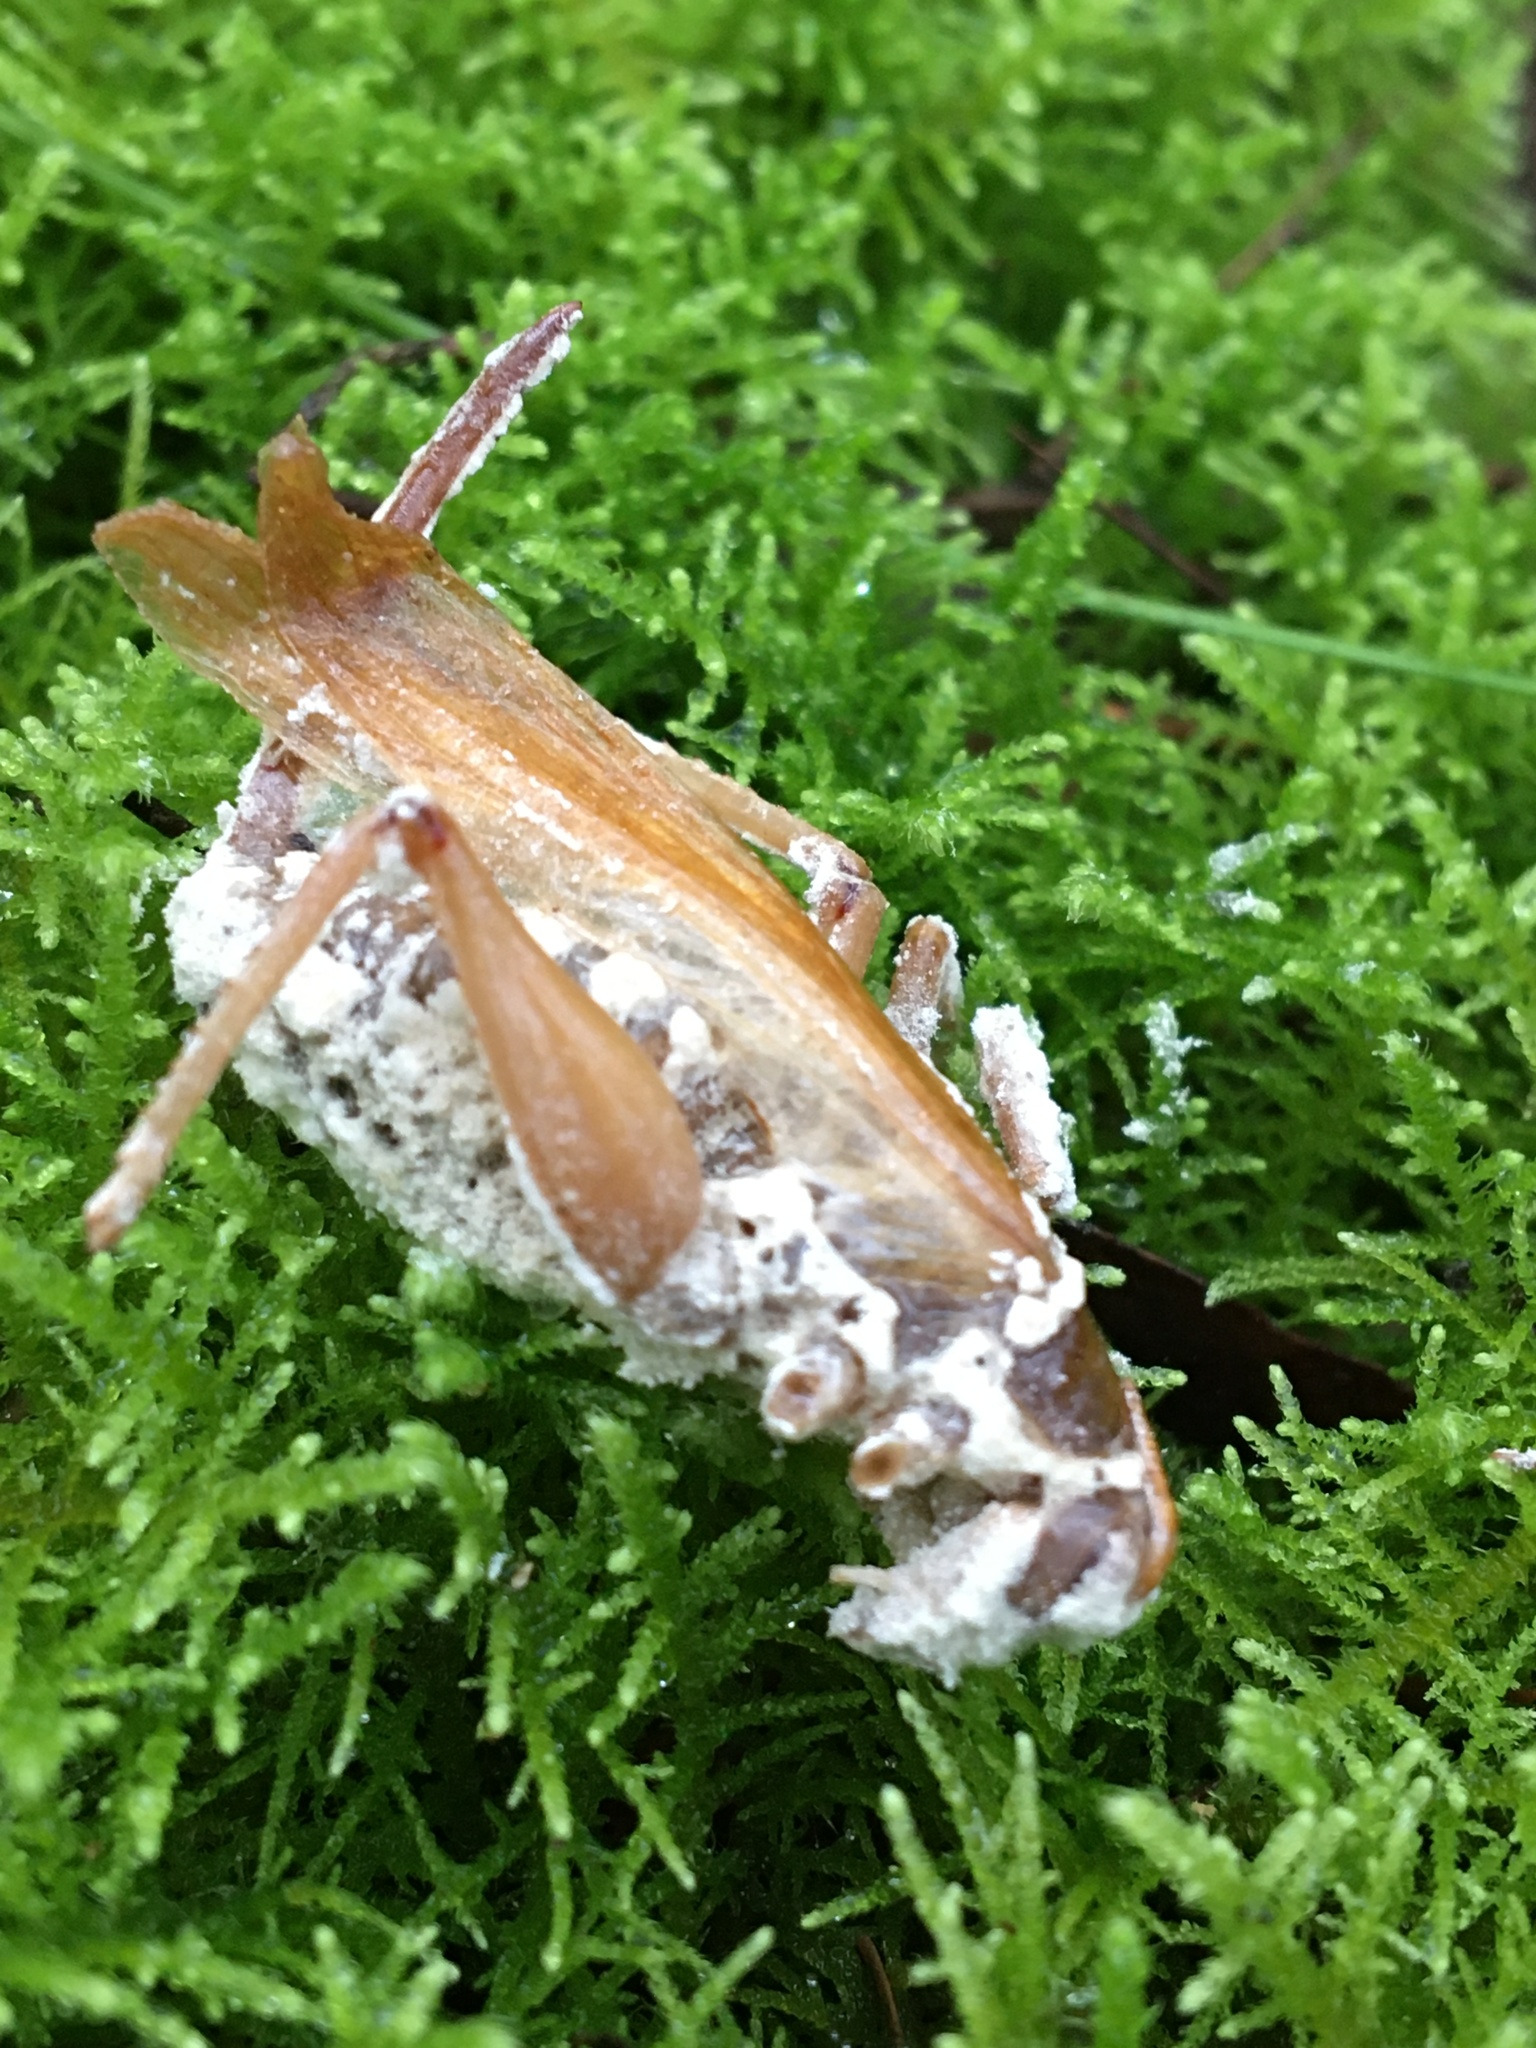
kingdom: Fungi
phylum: Ascomycota
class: Sordariomycetes
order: Hypocreales
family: Cordycipitaceae
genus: Beauveria
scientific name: Beauveria bassiana
